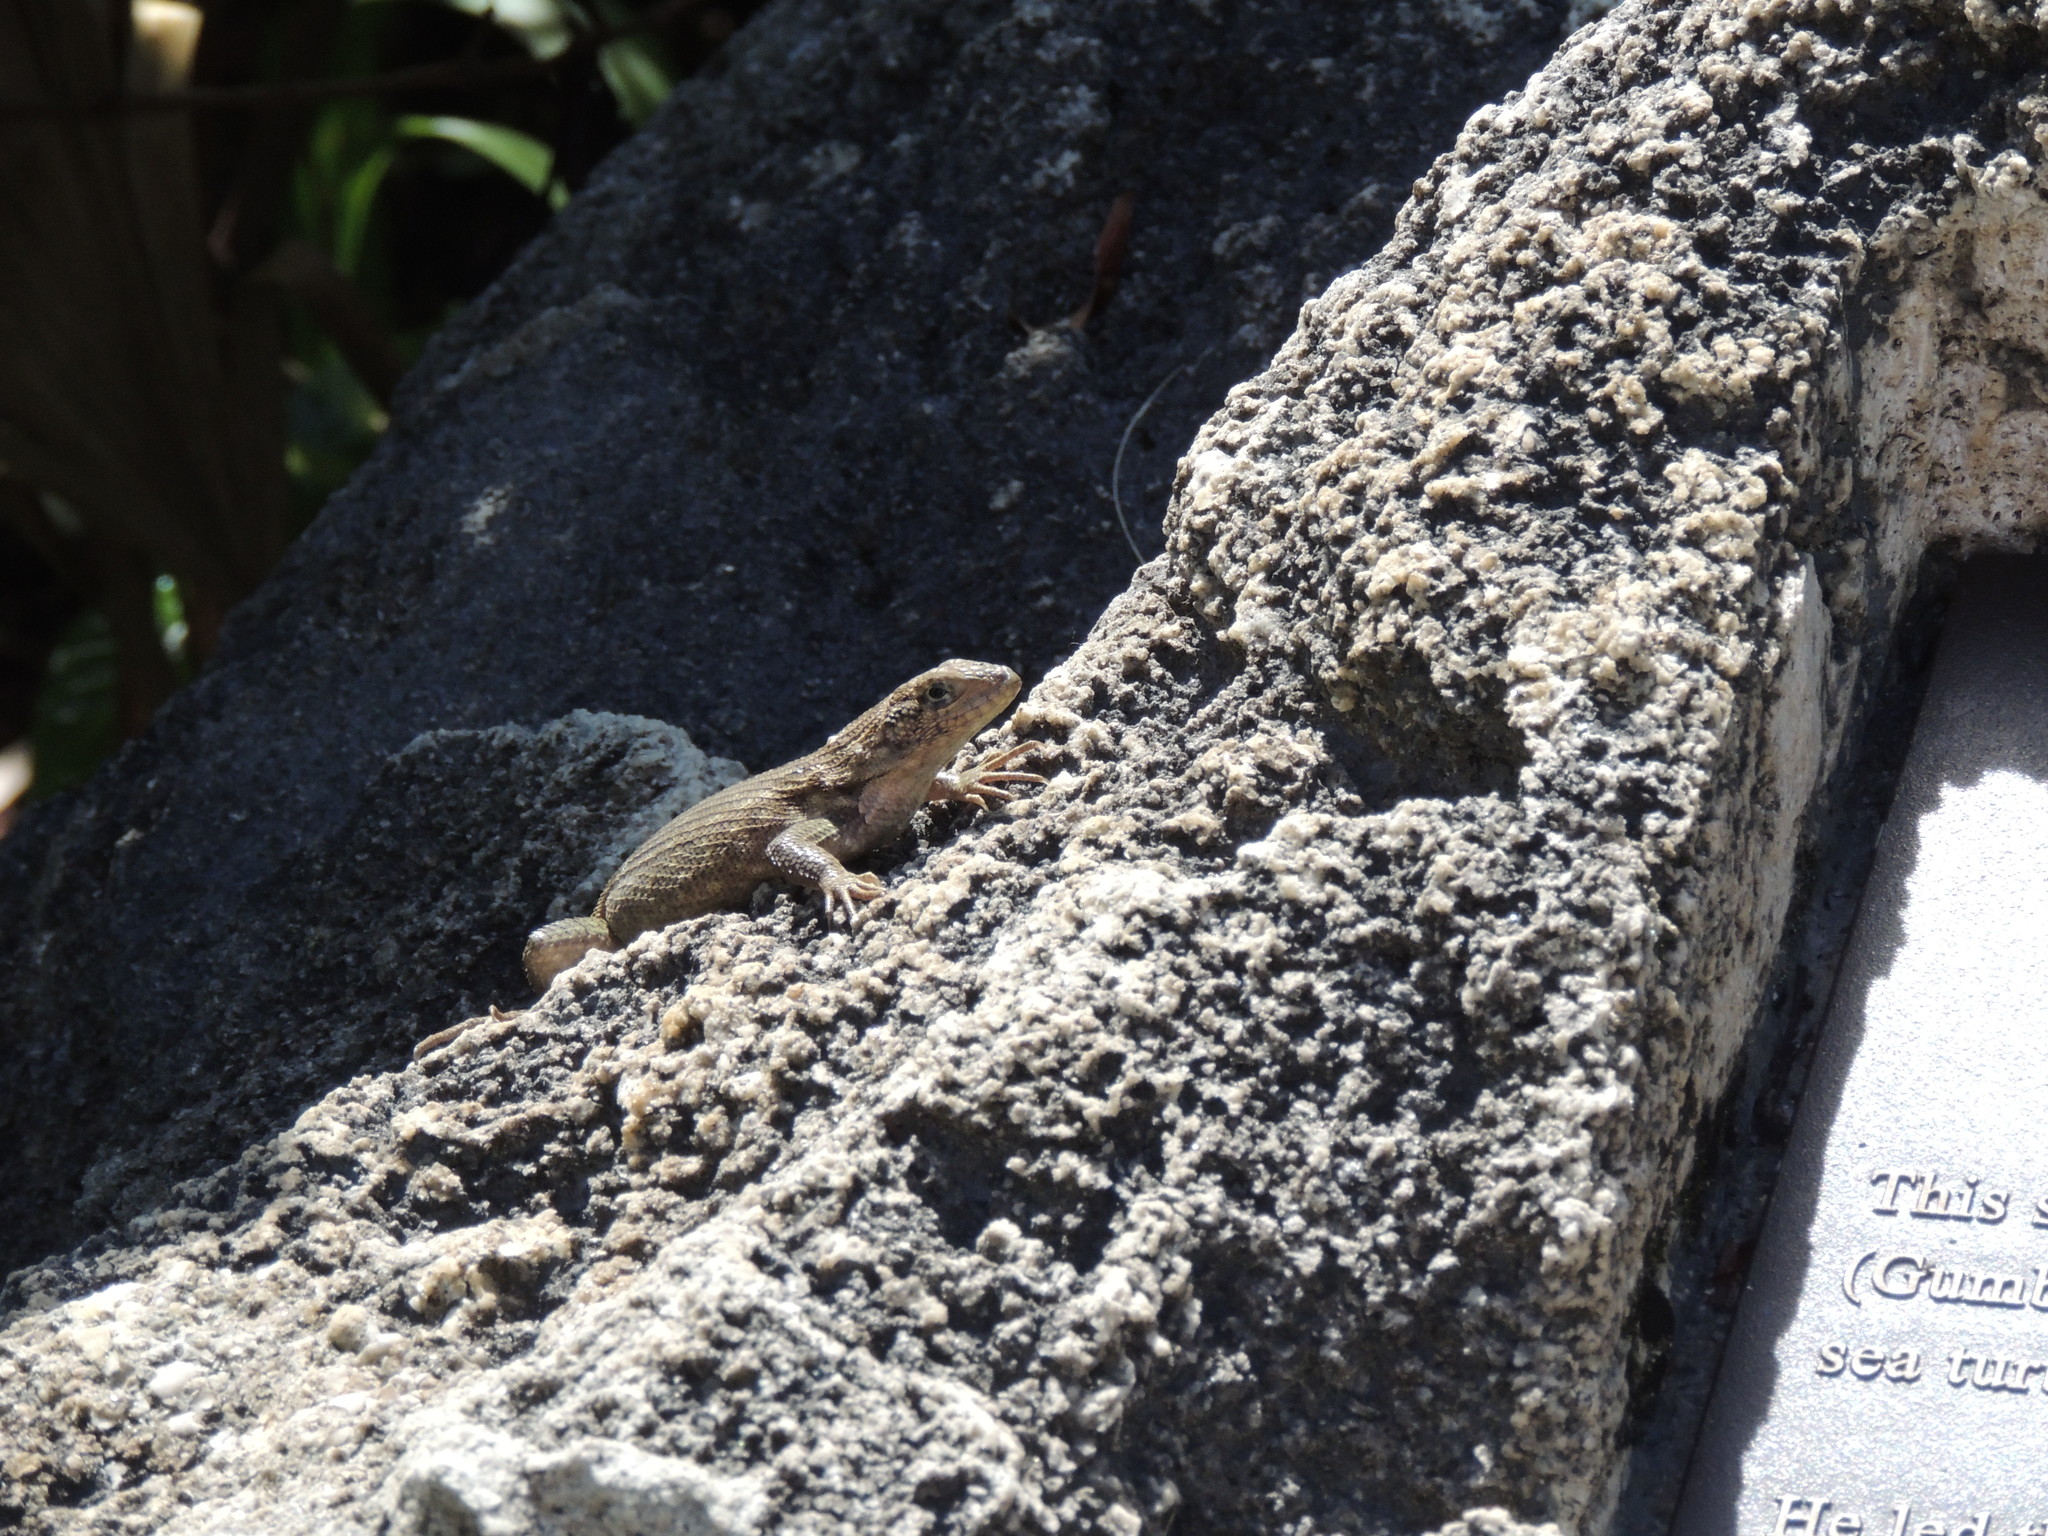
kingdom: Animalia
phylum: Chordata
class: Squamata
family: Leiocephalidae
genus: Leiocephalus
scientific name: Leiocephalus carinatus
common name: Northern curly-tailed lizard
